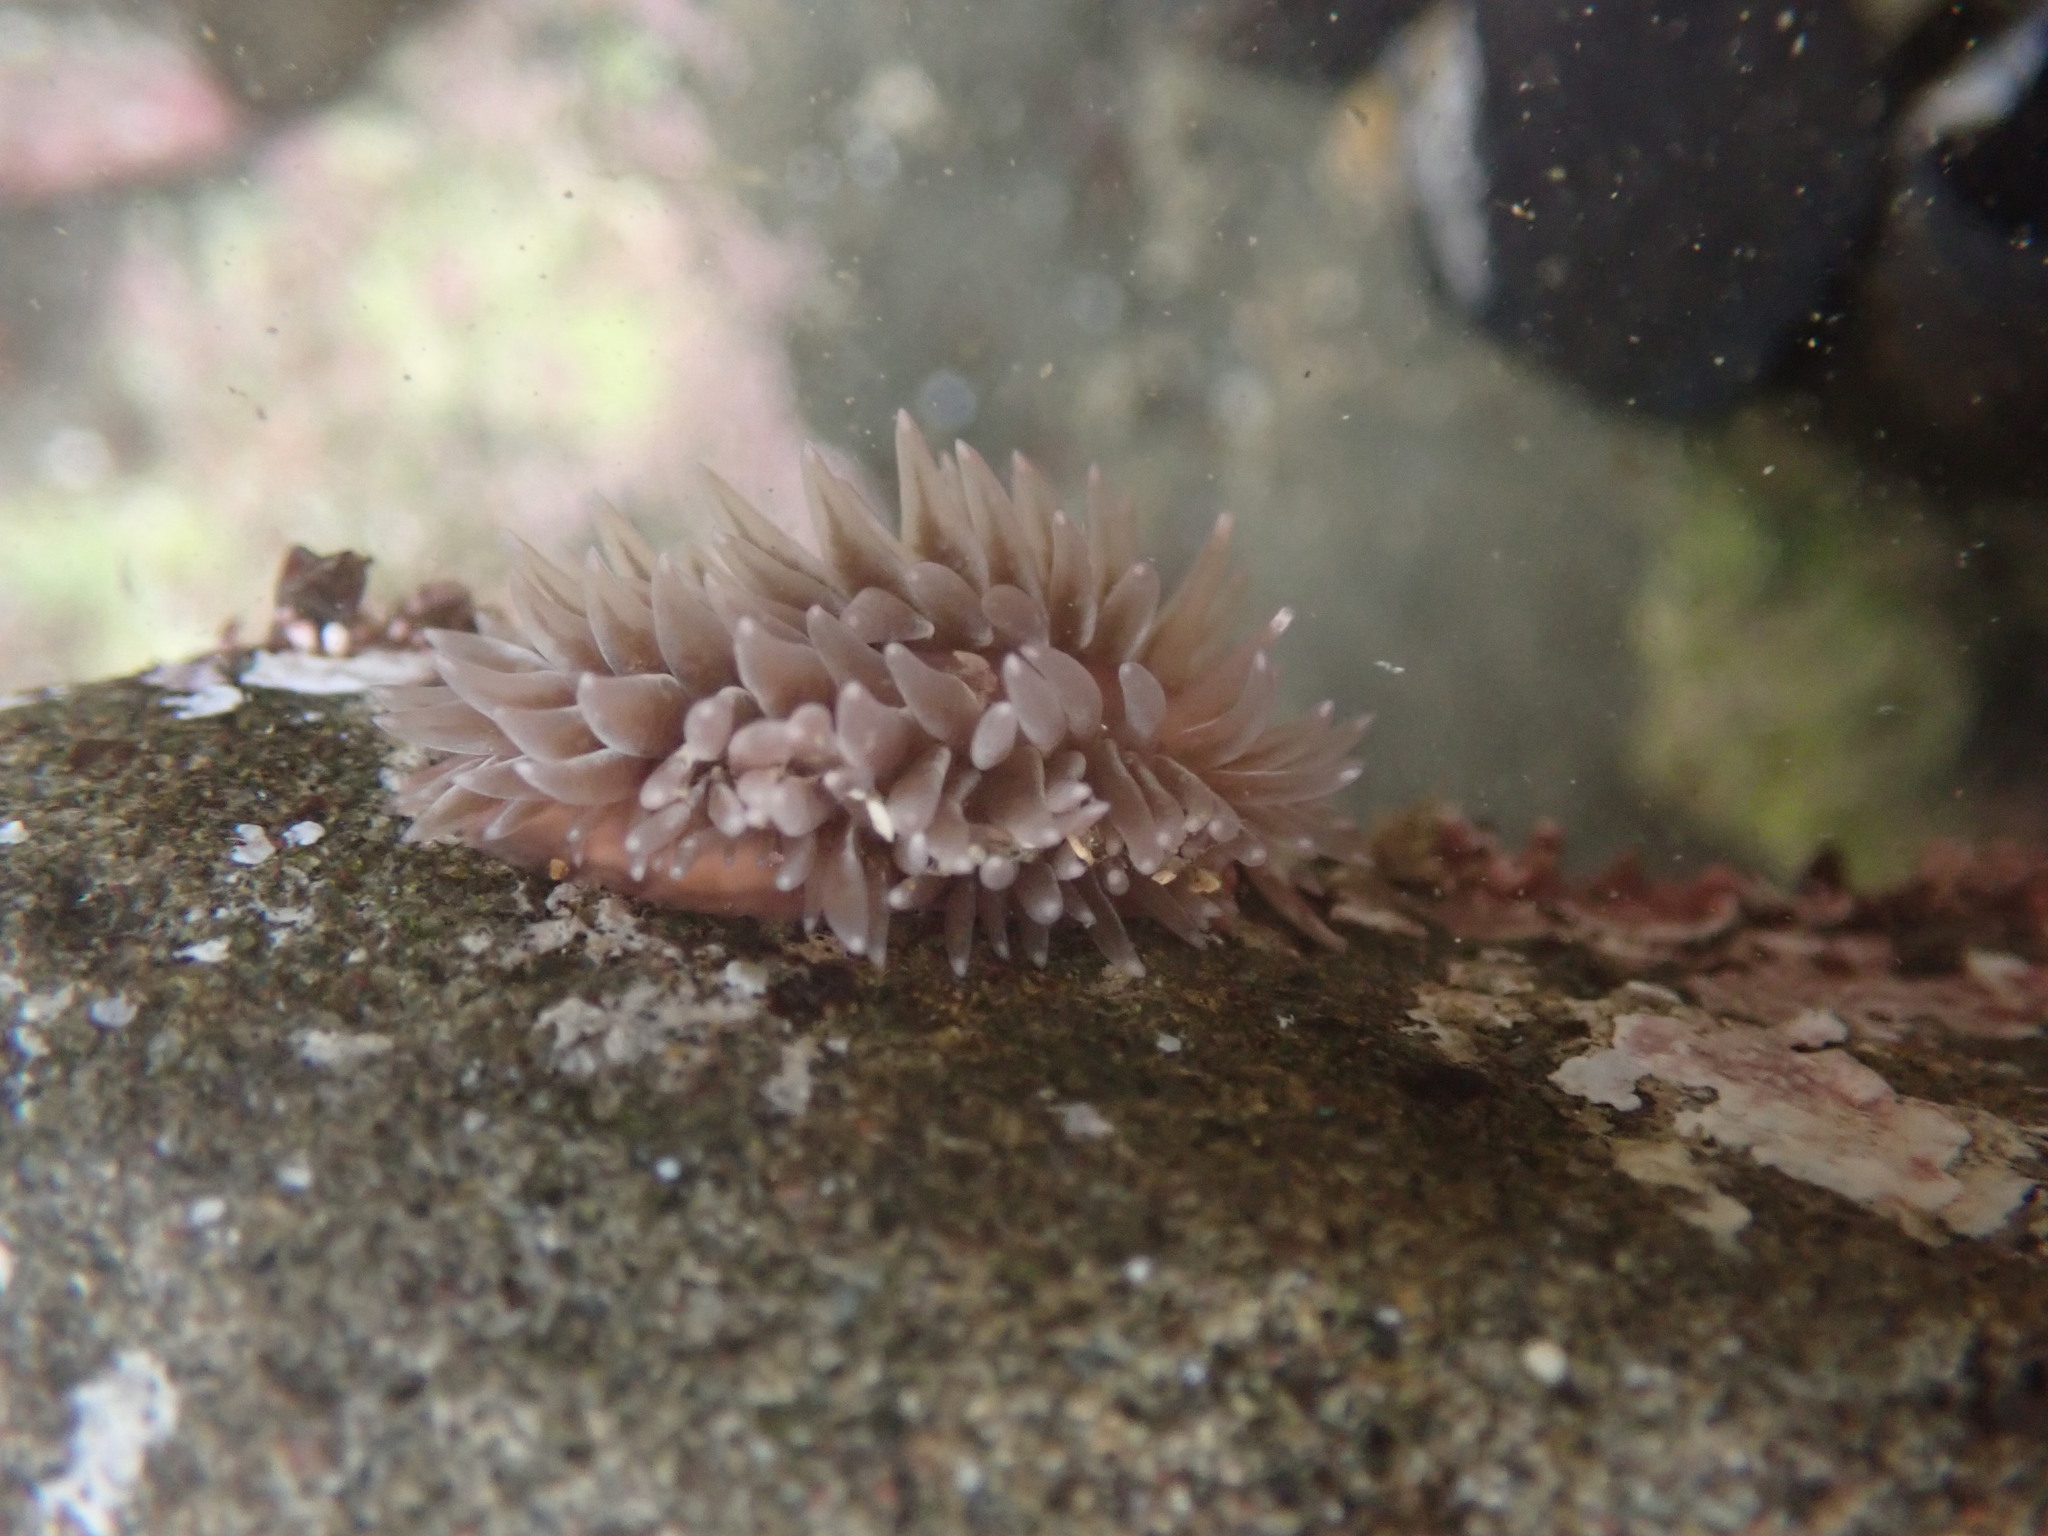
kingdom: Animalia
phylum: Mollusca
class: Gastropoda
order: Nudibranchia
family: Aeolidiidae
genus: Aeolidia
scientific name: Aeolidia loui
